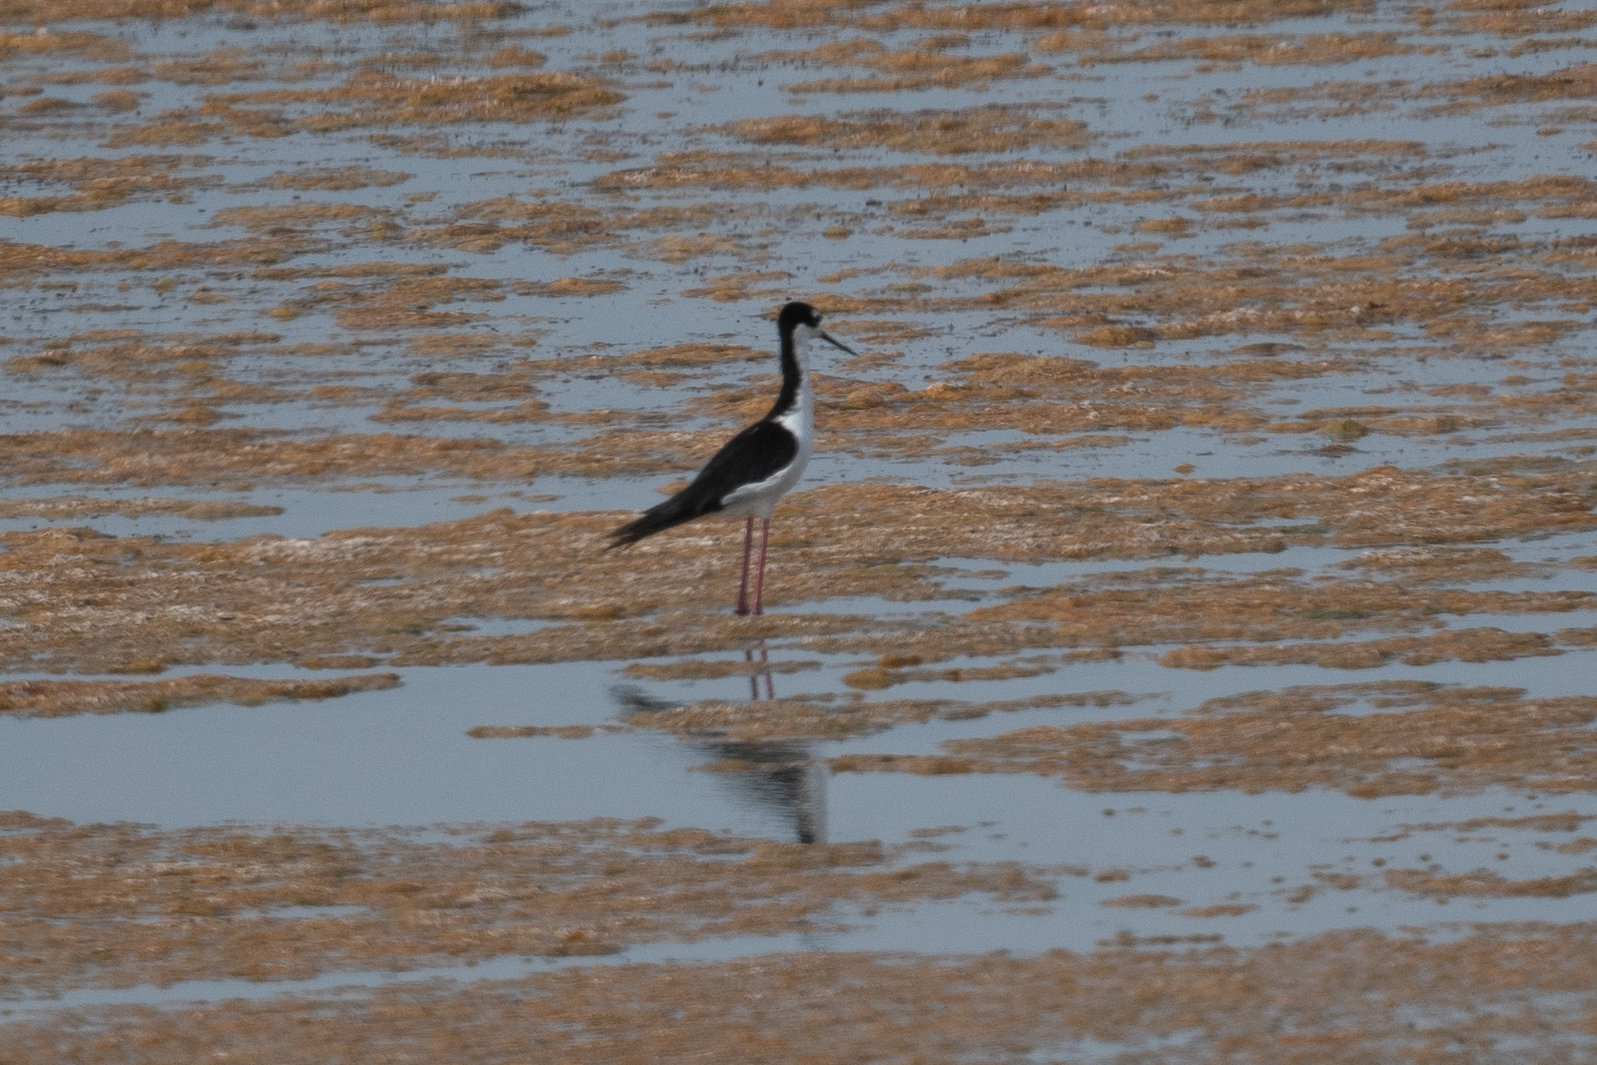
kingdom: Animalia
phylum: Chordata
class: Aves
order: Charadriiformes
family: Recurvirostridae
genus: Himantopus
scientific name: Himantopus mexicanus
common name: Black-necked stilt
